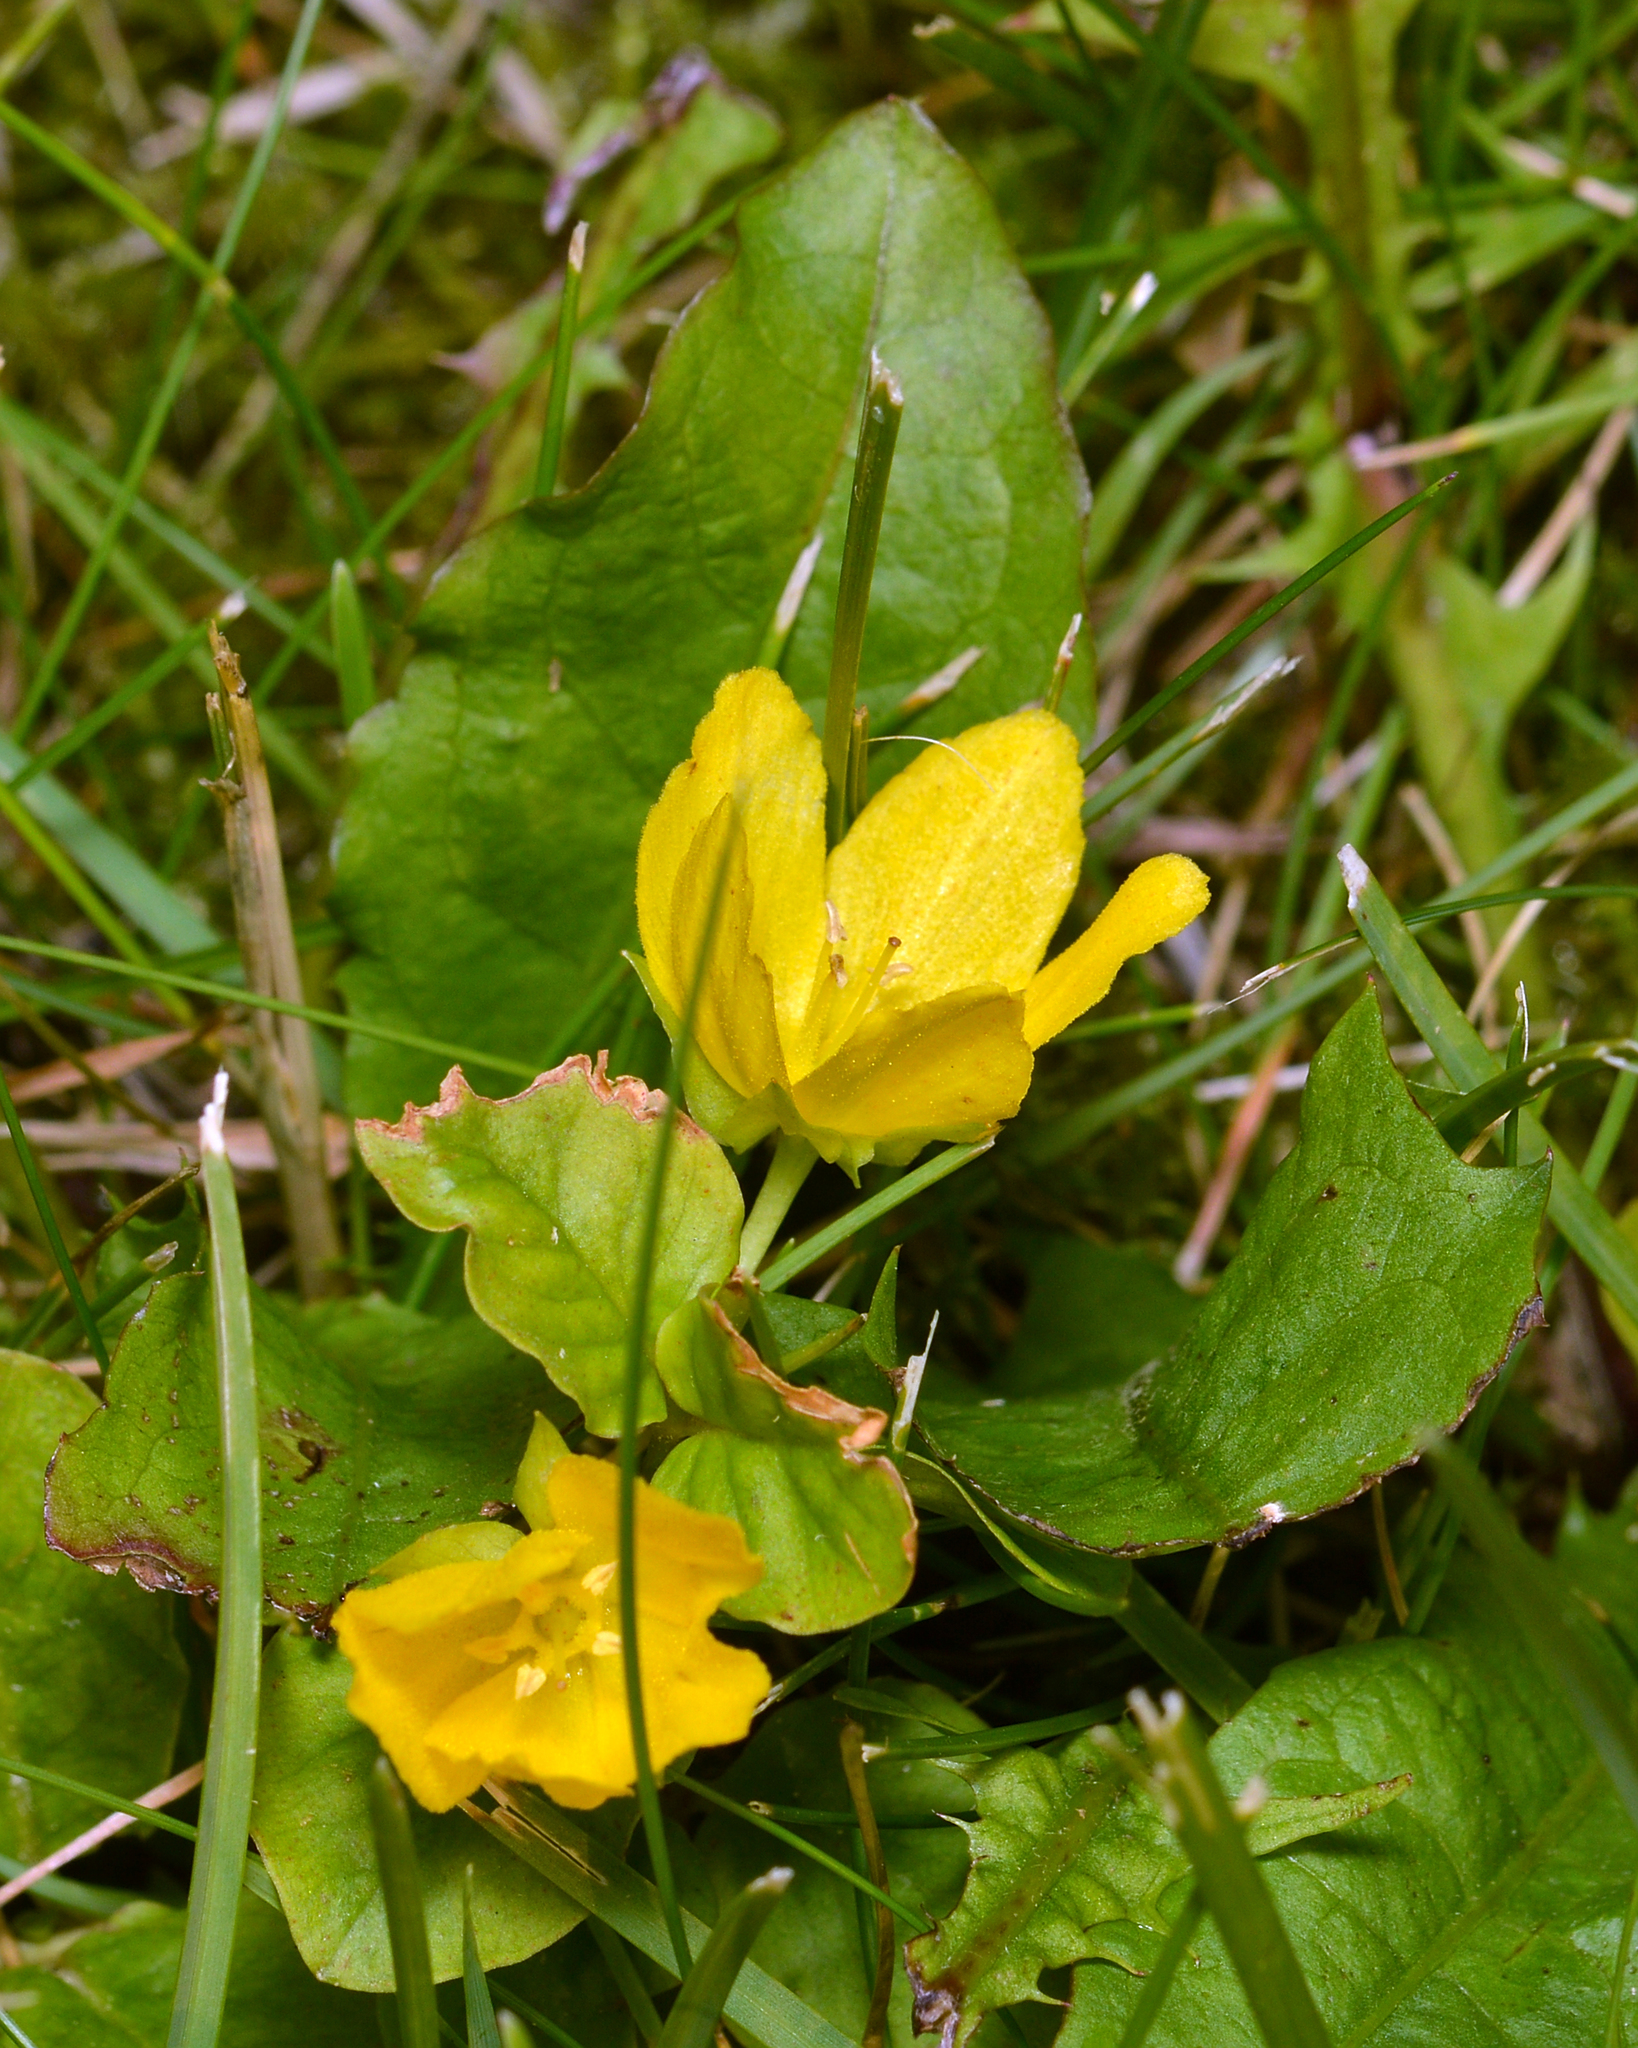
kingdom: Plantae
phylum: Tracheophyta
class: Magnoliopsida
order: Ericales
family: Primulaceae
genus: Lysimachia
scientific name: Lysimachia nummularia
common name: Moneywort
